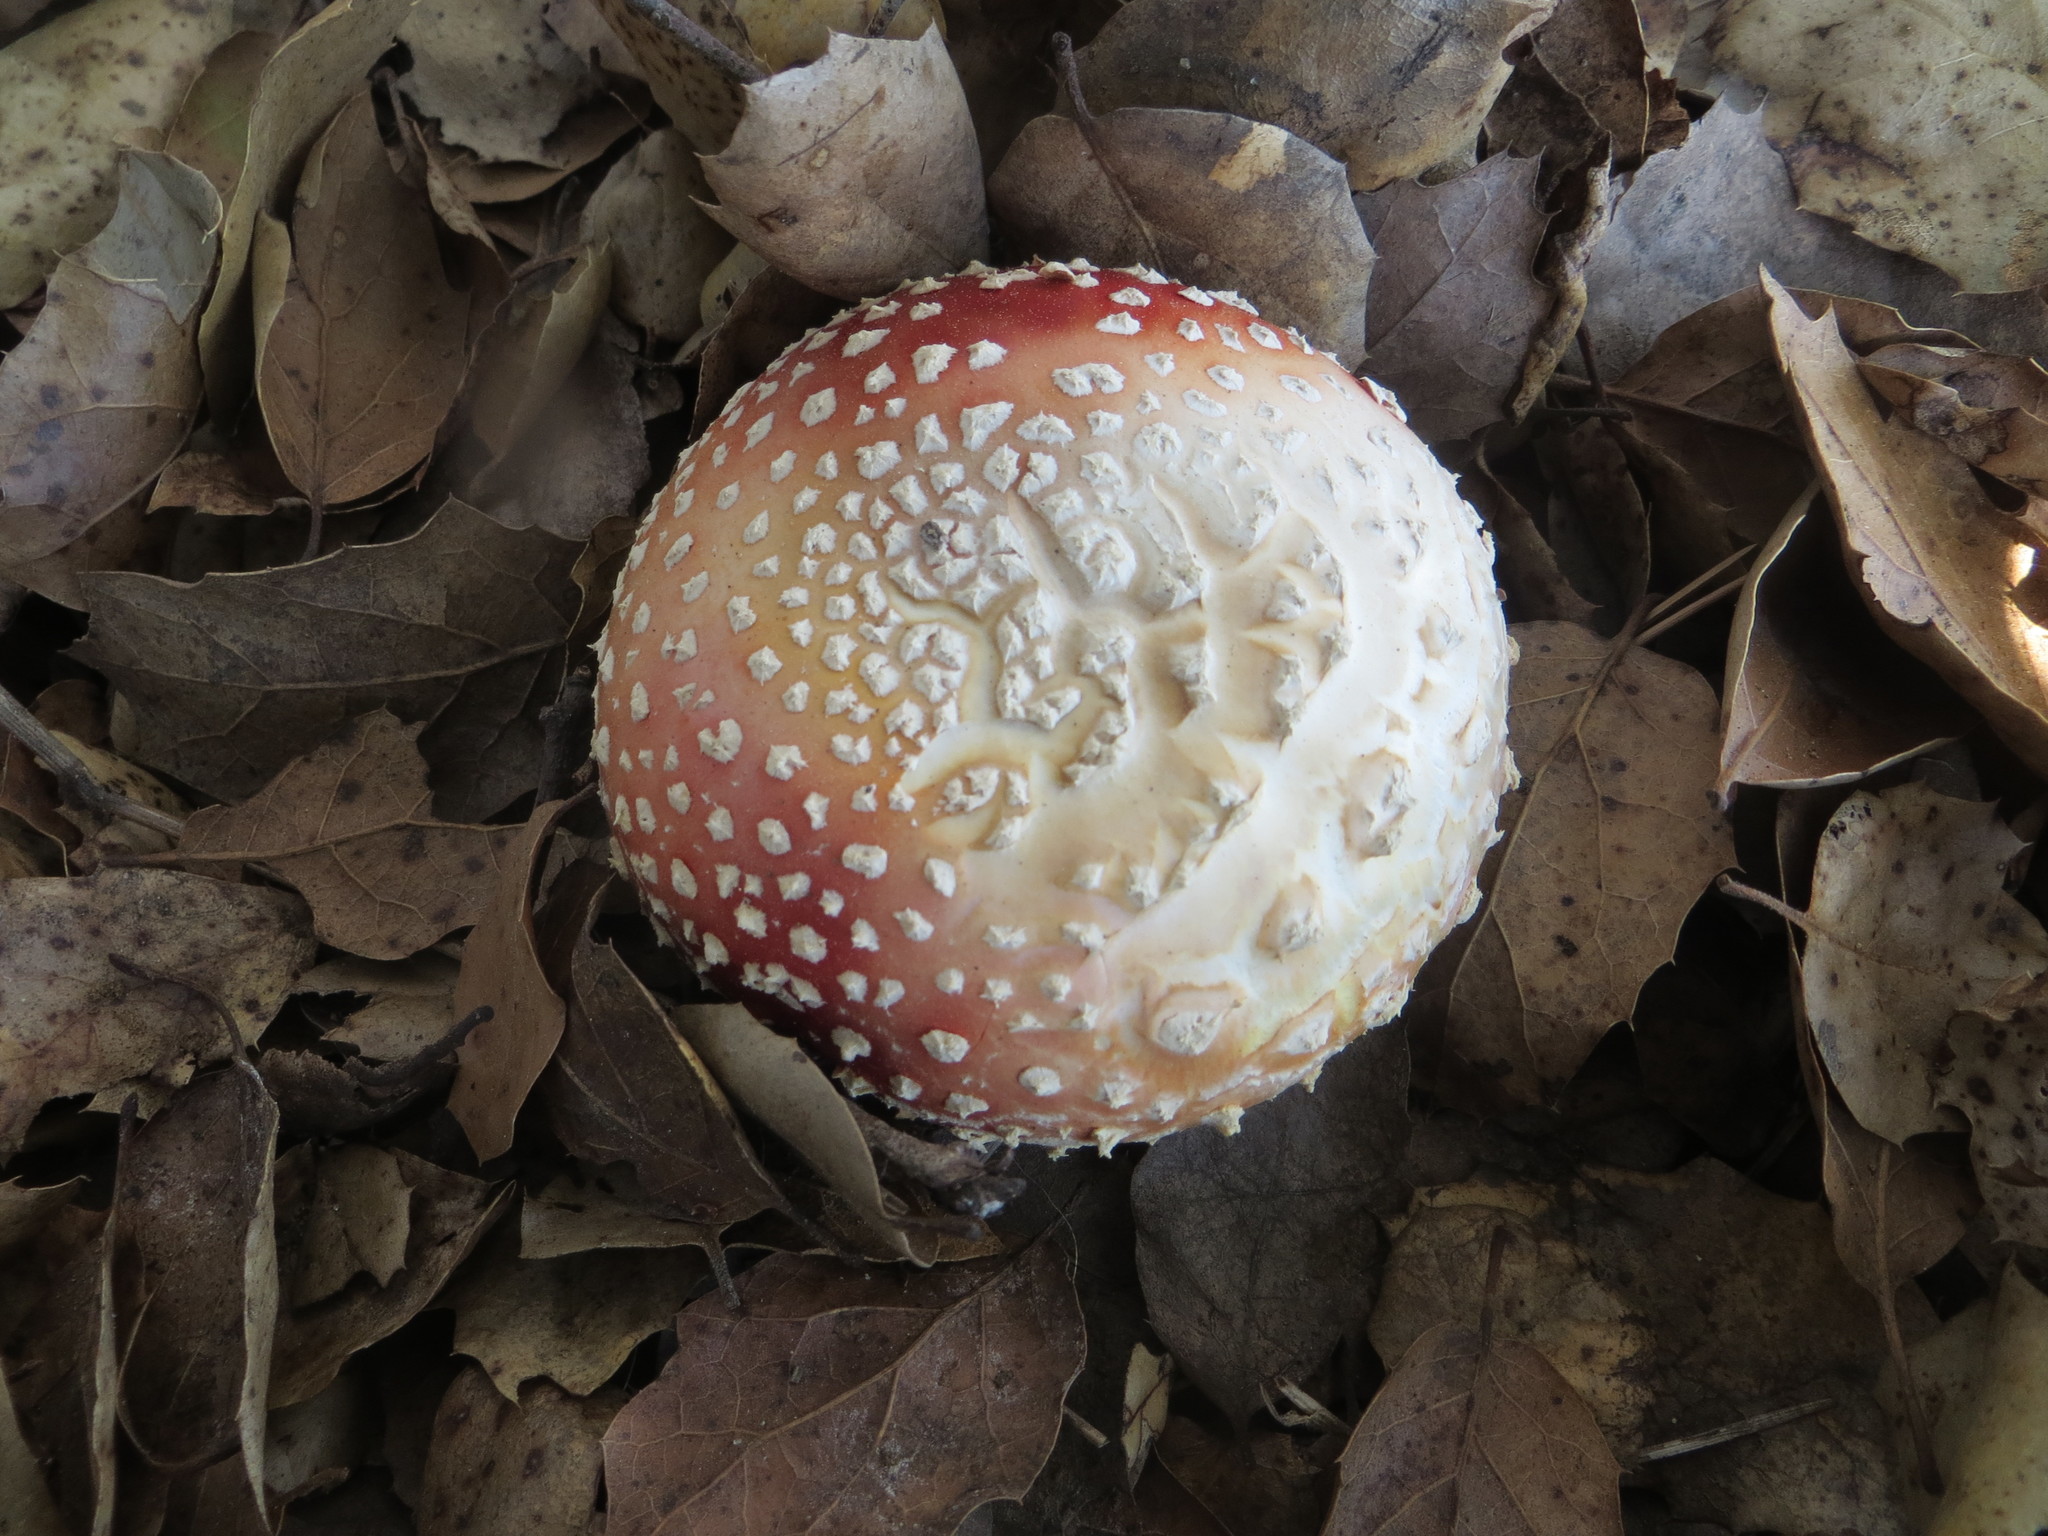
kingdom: Fungi
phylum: Basidiomycota
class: Agaricomycetes
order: Agaricales
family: Amanitaceae
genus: Amanita
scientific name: Amanita muscaria
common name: Fly agaric
